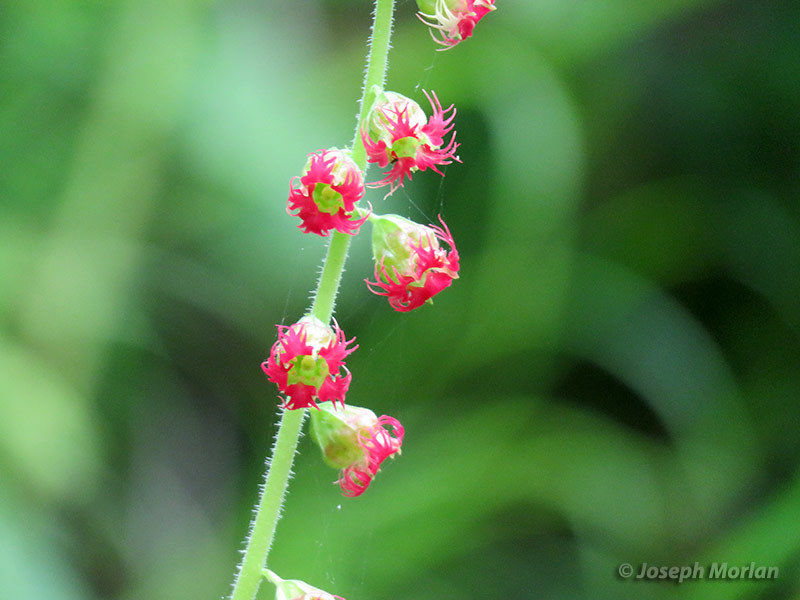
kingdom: Plantae
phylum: Tracheophyta
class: Magnoliopsida
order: Saxifragales
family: Saxifragaceae
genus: Tellima
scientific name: Tellima grandiflora
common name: Fringecups
